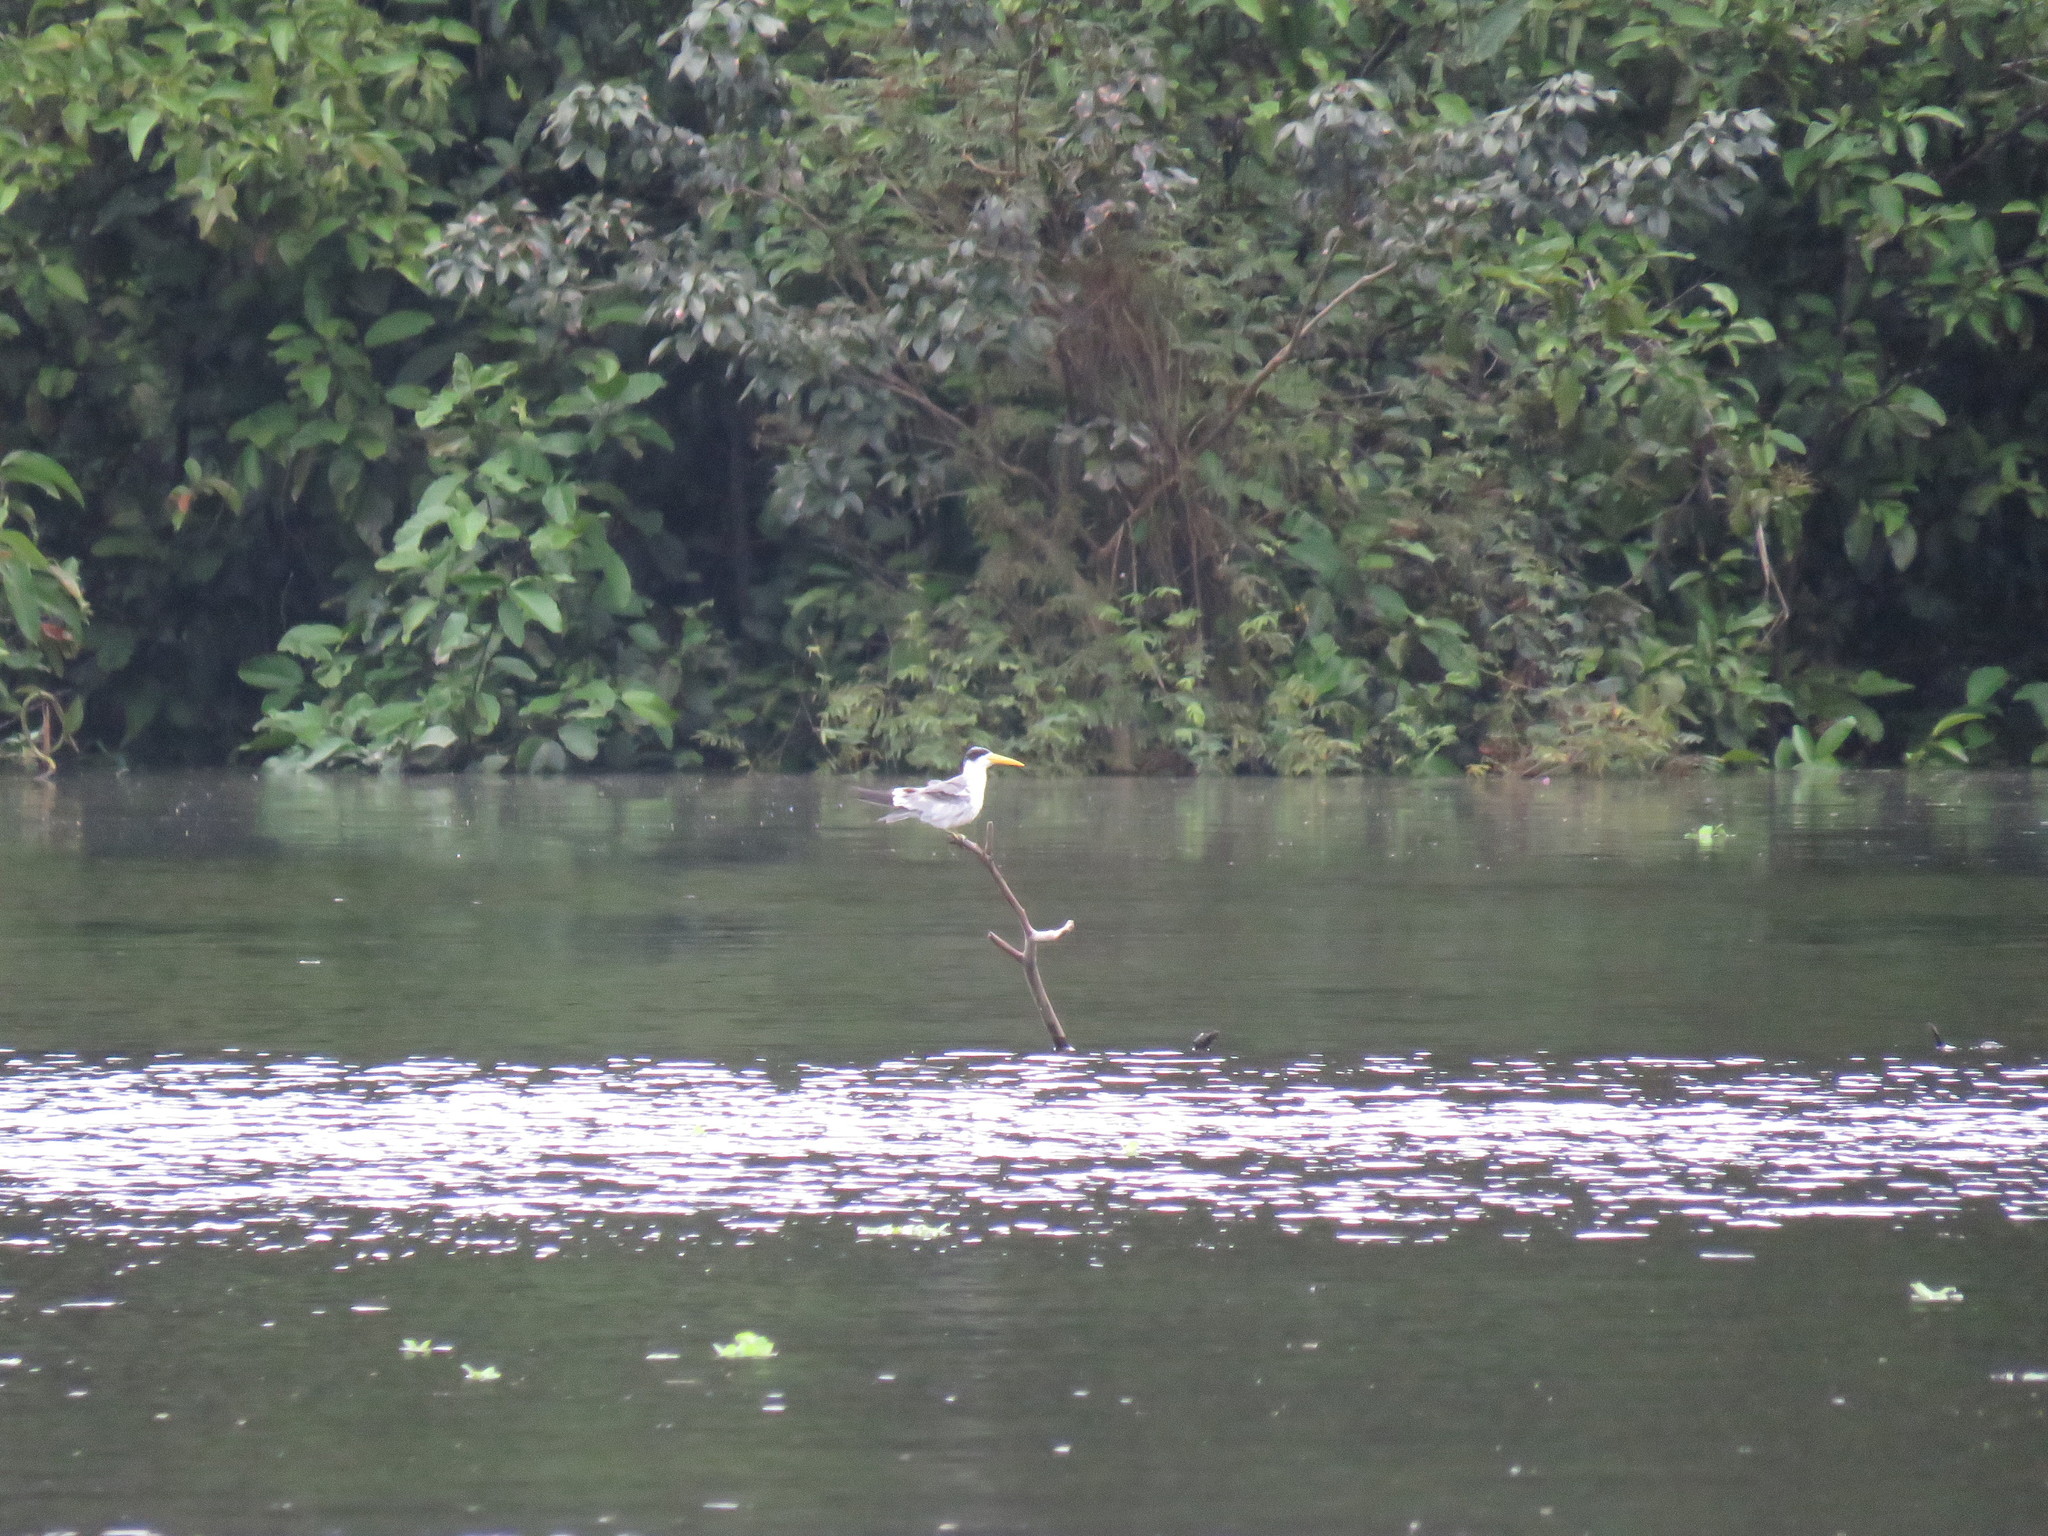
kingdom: Animalia
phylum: Chordata
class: Aves
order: Charadriiformes
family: Laridae
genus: Phaetusa
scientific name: Phaetusa simplex
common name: Large-billed tern
